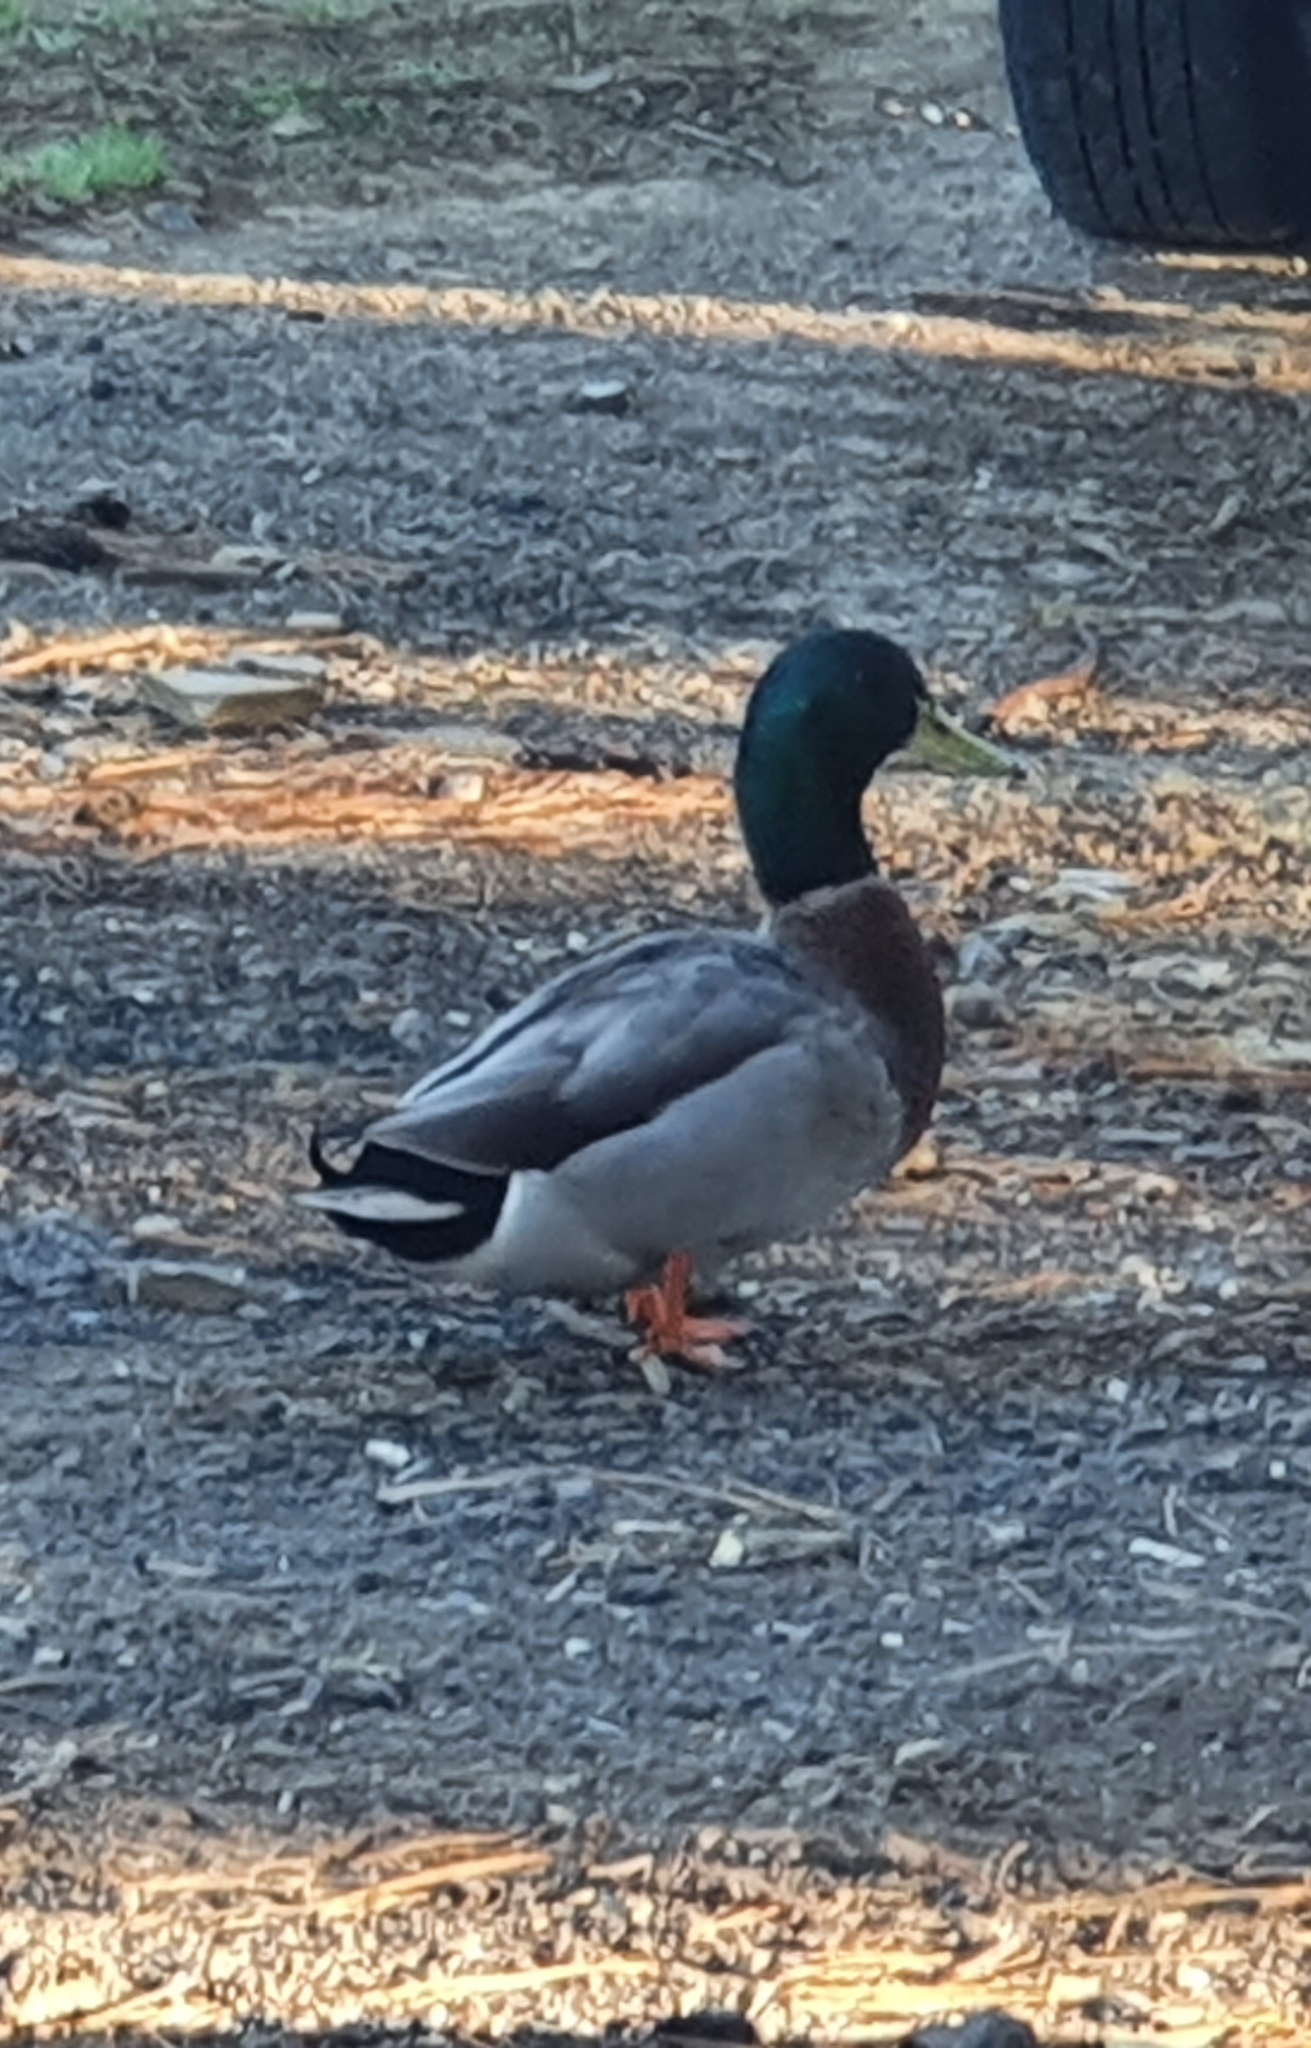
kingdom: Animalia
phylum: Chordata
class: Aves
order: Anseriformes
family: Anatidae
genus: Anas
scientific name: Anas platyrhynchos
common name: Mallard
